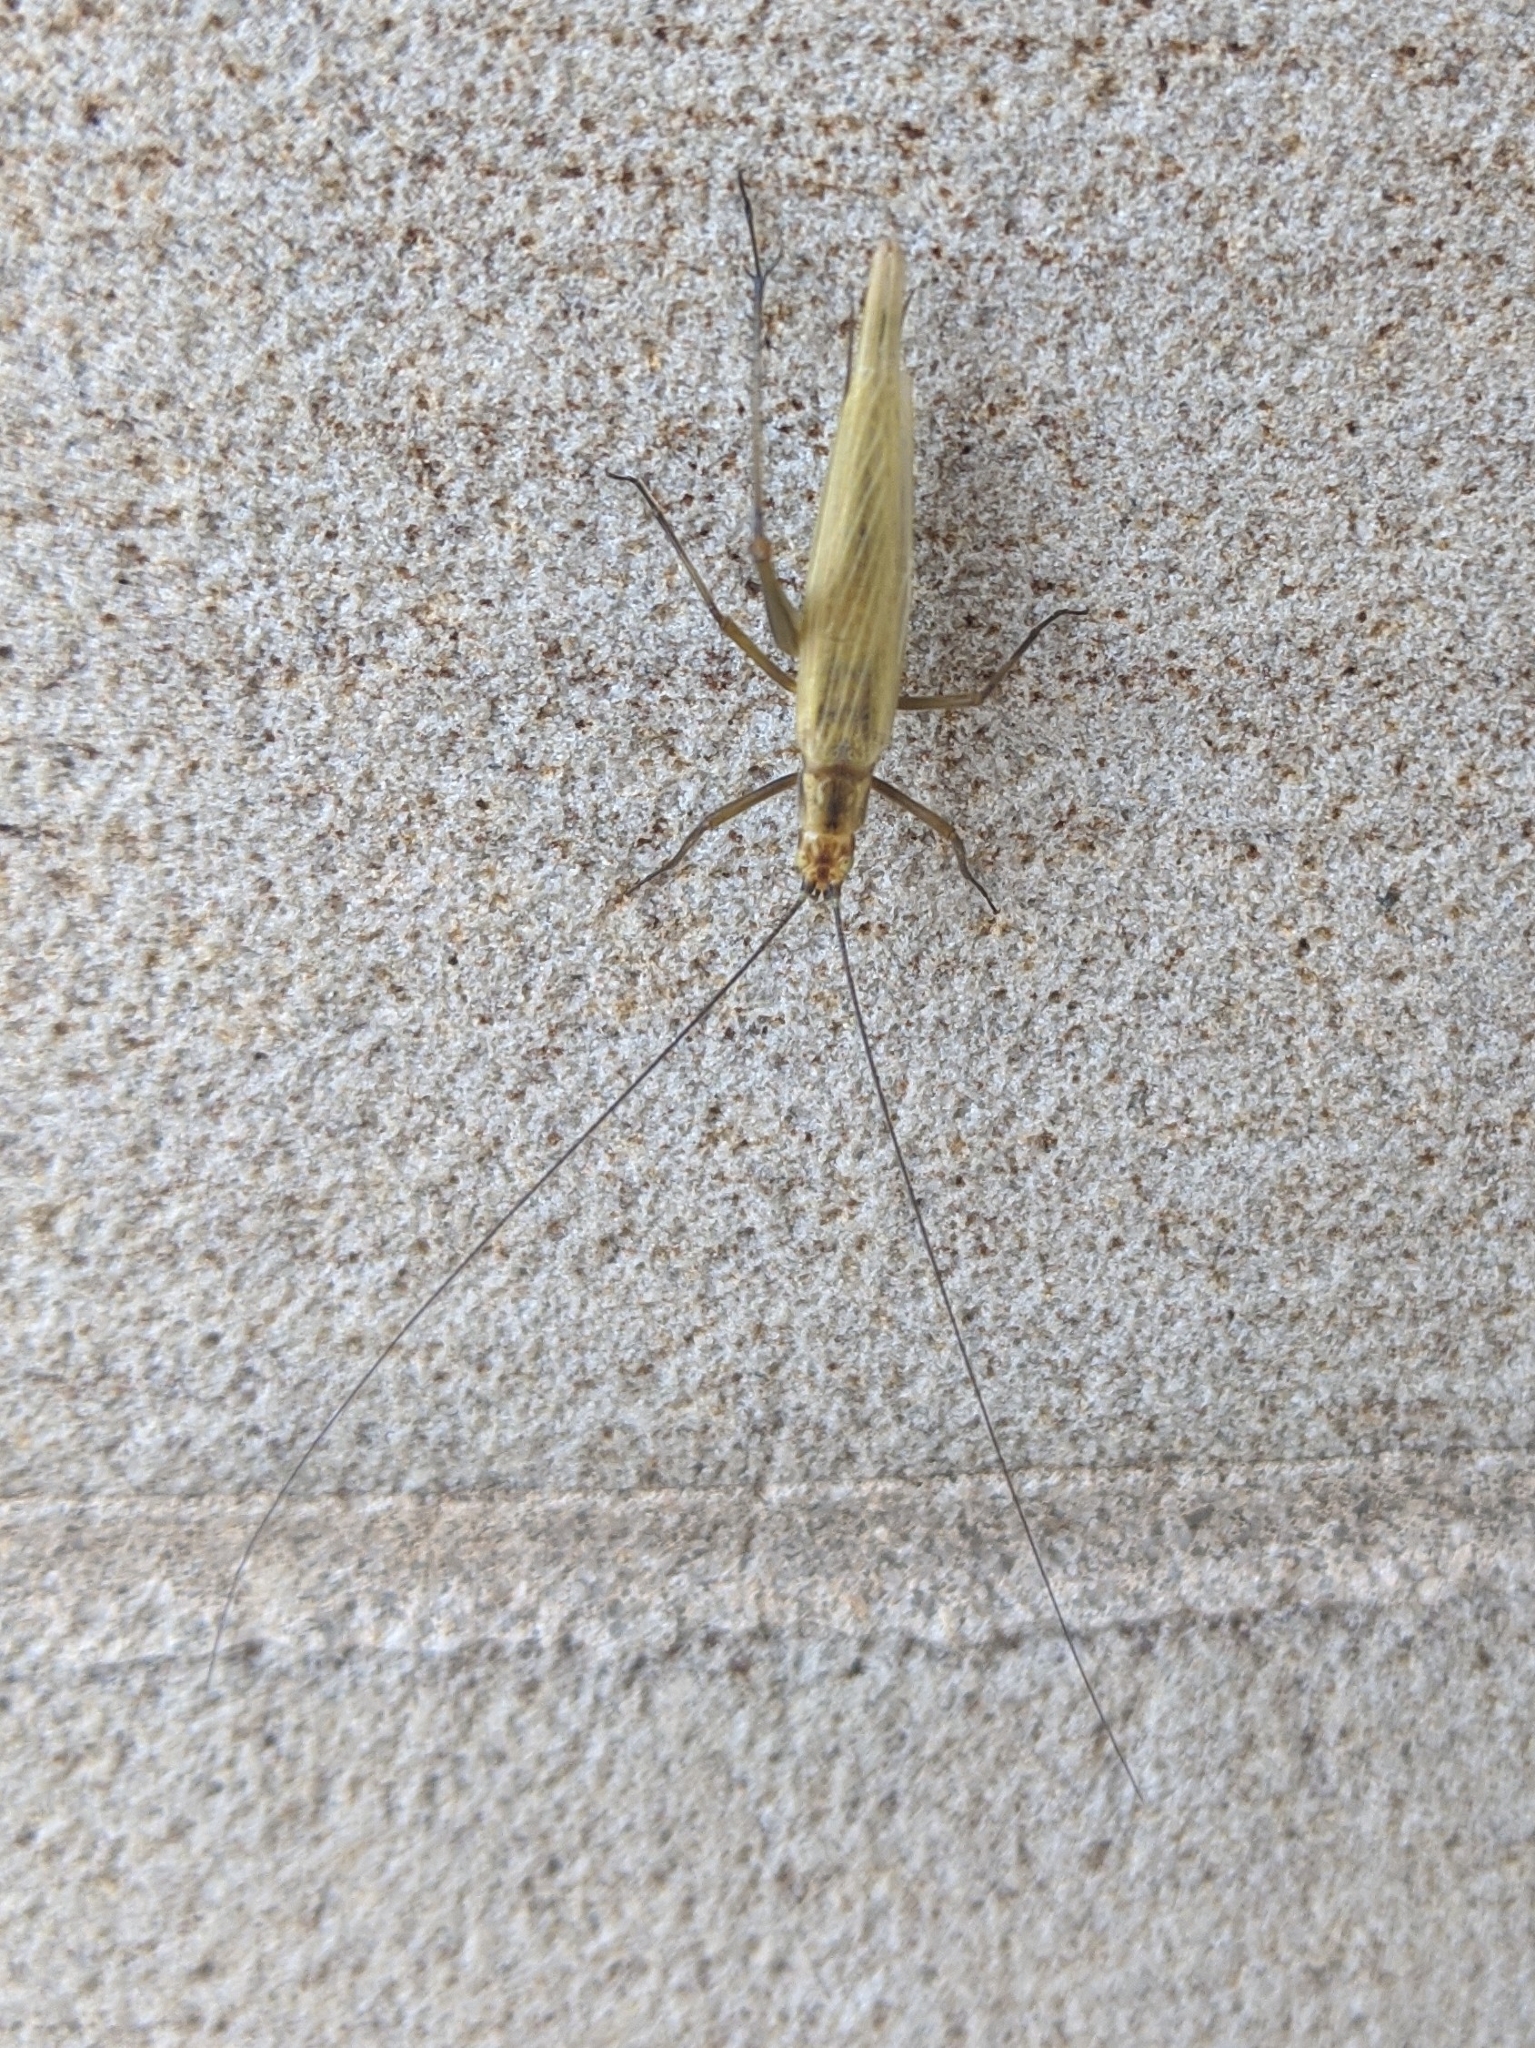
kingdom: Animalia
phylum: Arthropoda
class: Insecta
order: Orthoptera
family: Gryllidae
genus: Oecanthus
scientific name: Oecanthus nigricornis
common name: Black-horned tree cricket
